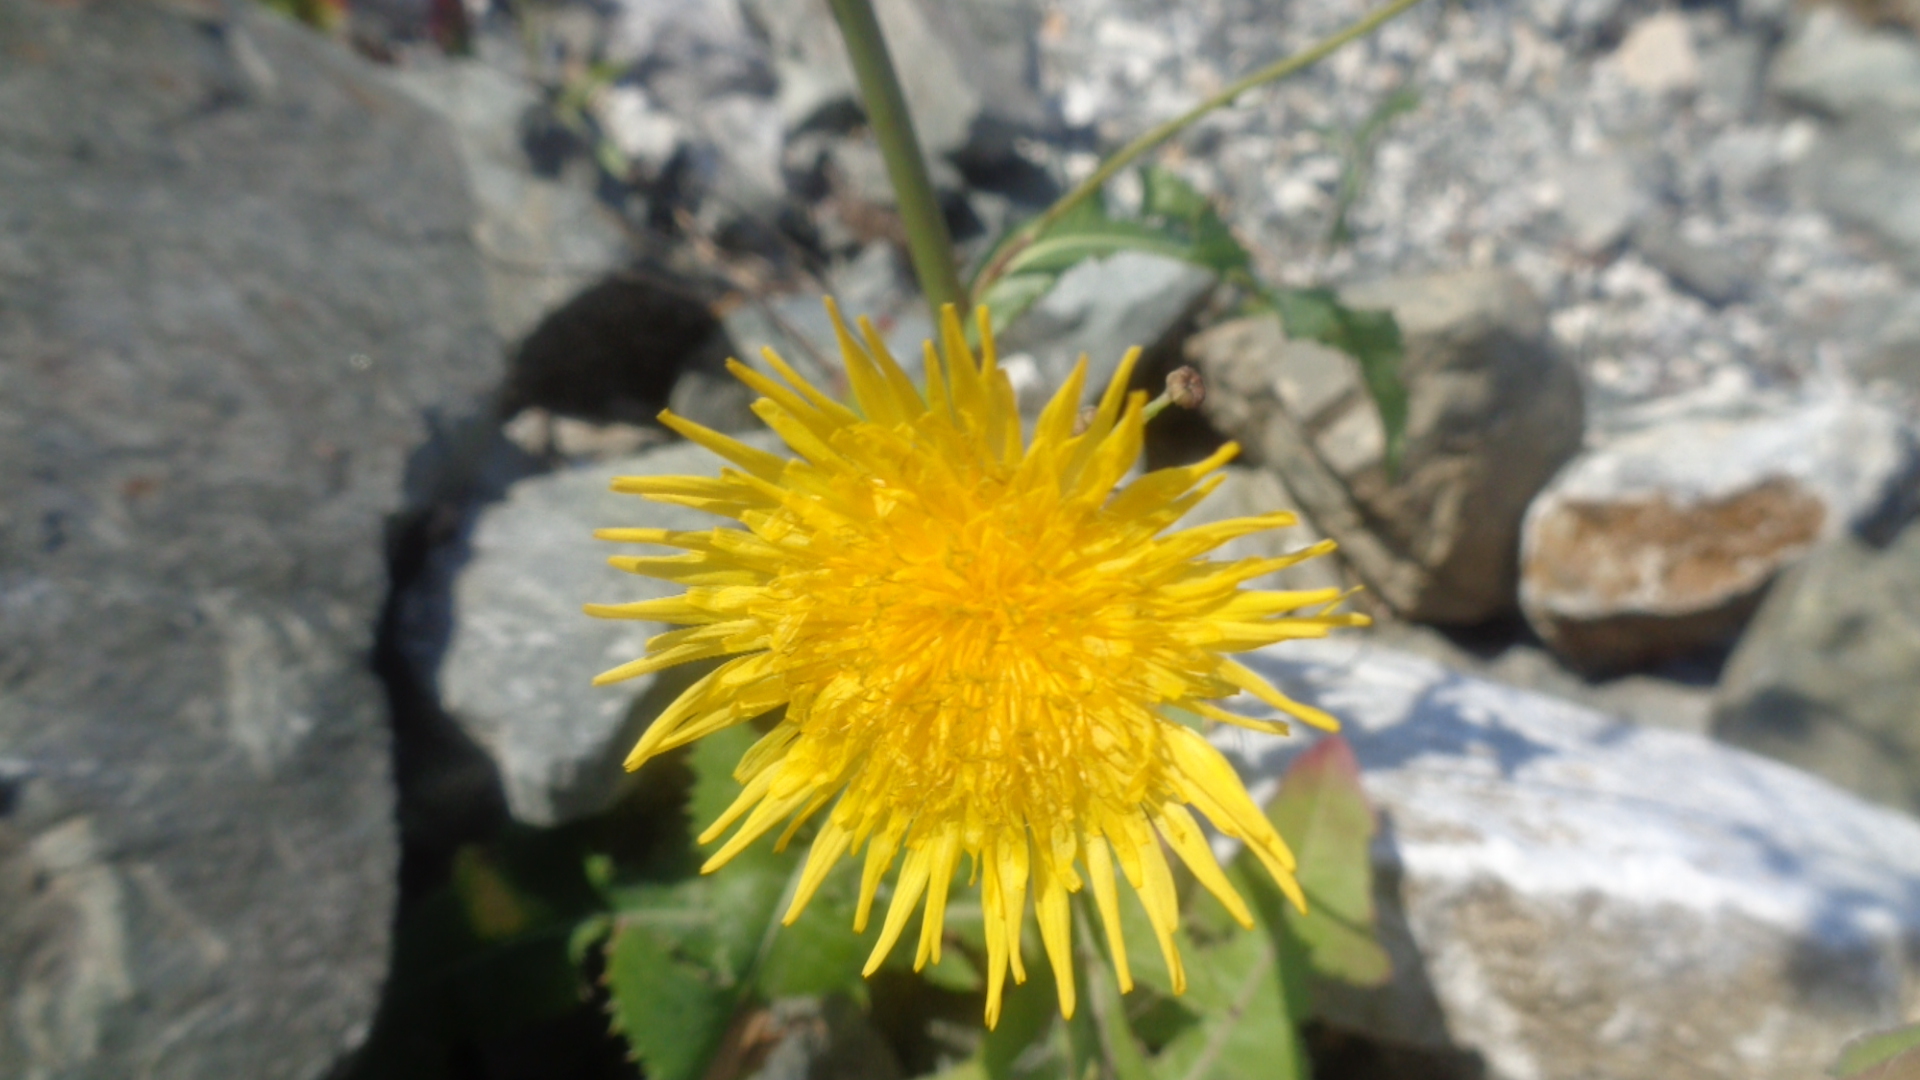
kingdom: Plantae
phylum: Tracheophyta
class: Magnoliopsida
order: Asterales
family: Asteraceae
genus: Sonchus
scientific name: Sonchus arvensis
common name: Perennial sow-thistle
